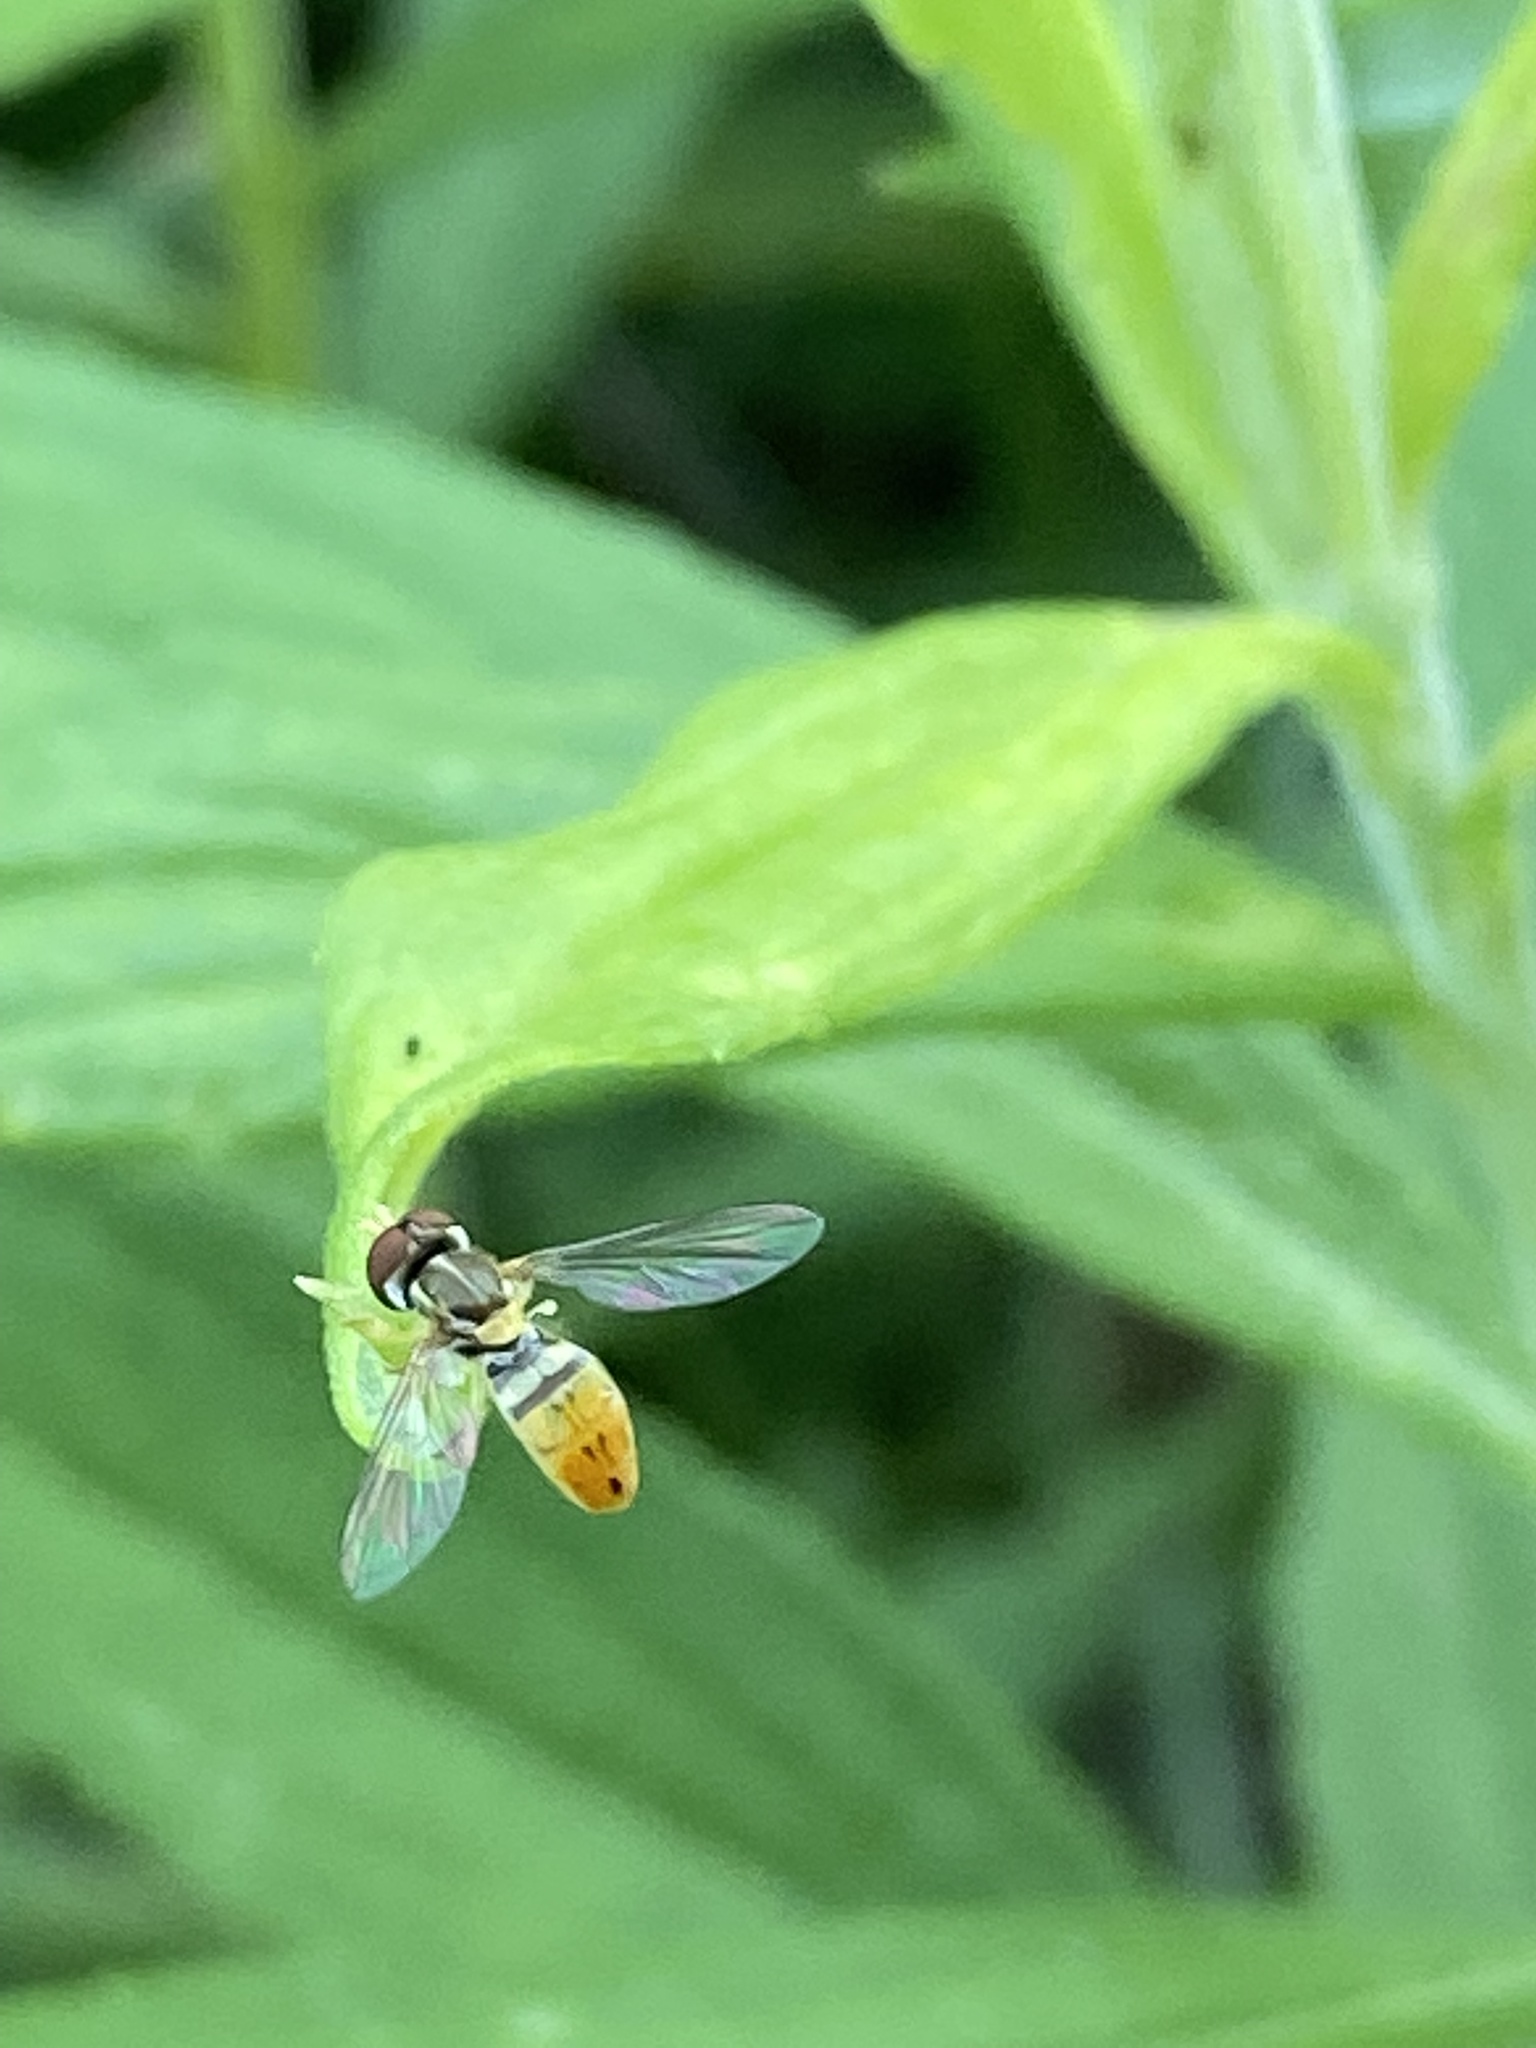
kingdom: Animalia
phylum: Arthropoda
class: Insecta
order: Diptera
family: Syrphidae
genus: Toxomerus
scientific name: Toxomerus marginatus
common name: Syrphid fly
